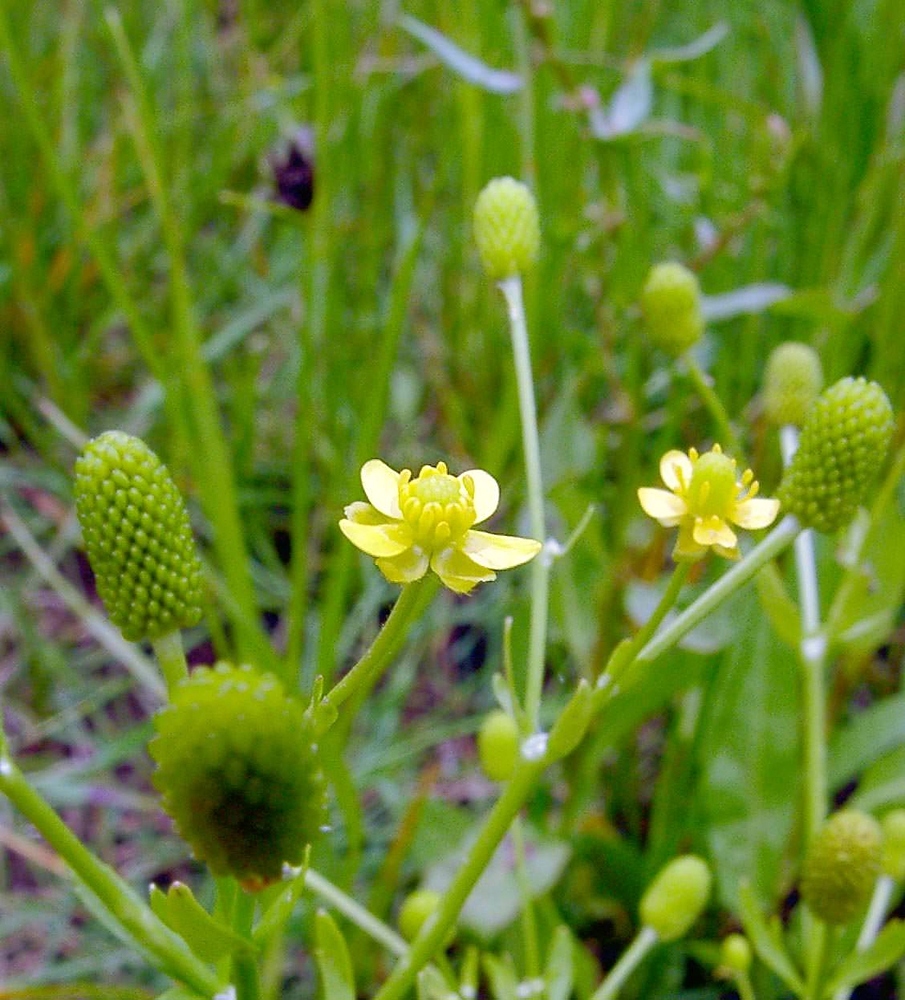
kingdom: Plantae
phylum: Tracheophyta
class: Magnoliopsida
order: Ranunculales
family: Ranunculaceae
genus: Ranunculus
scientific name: Ranunculus sceleratus
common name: Celery-leaved buttercup
